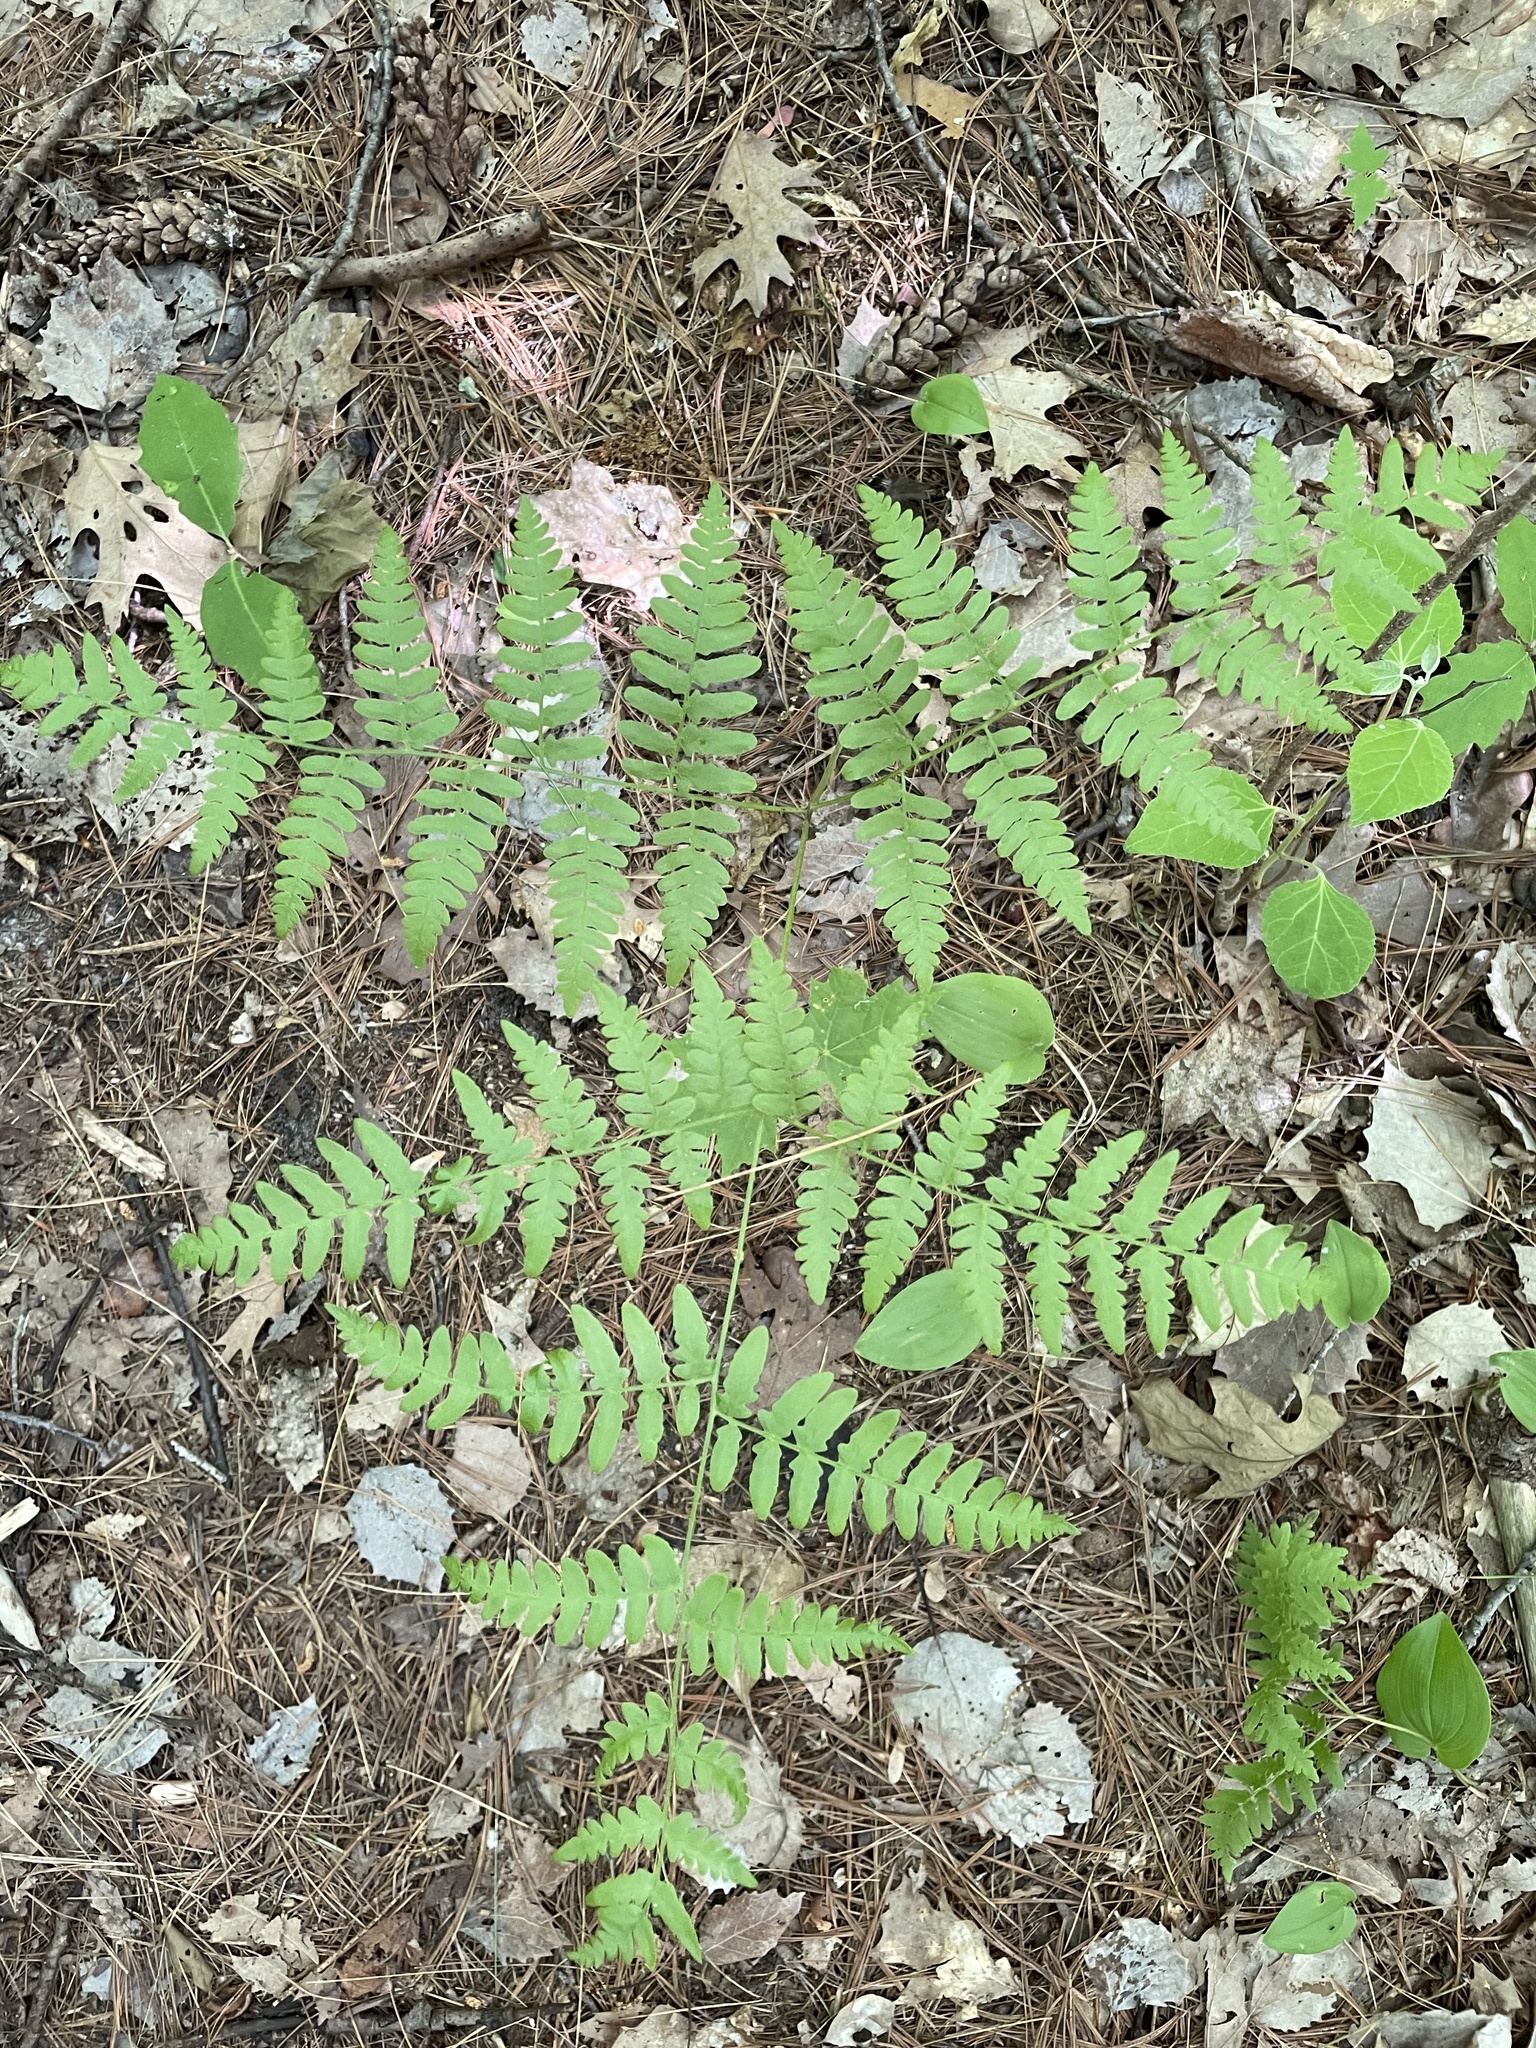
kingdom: Plantae
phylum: Tracheophyta
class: Polypodiopsida
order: Polypodiales
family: Dennstaedtiaceae
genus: Pteridium
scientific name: Pteridium aquilinum
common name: Bracken
